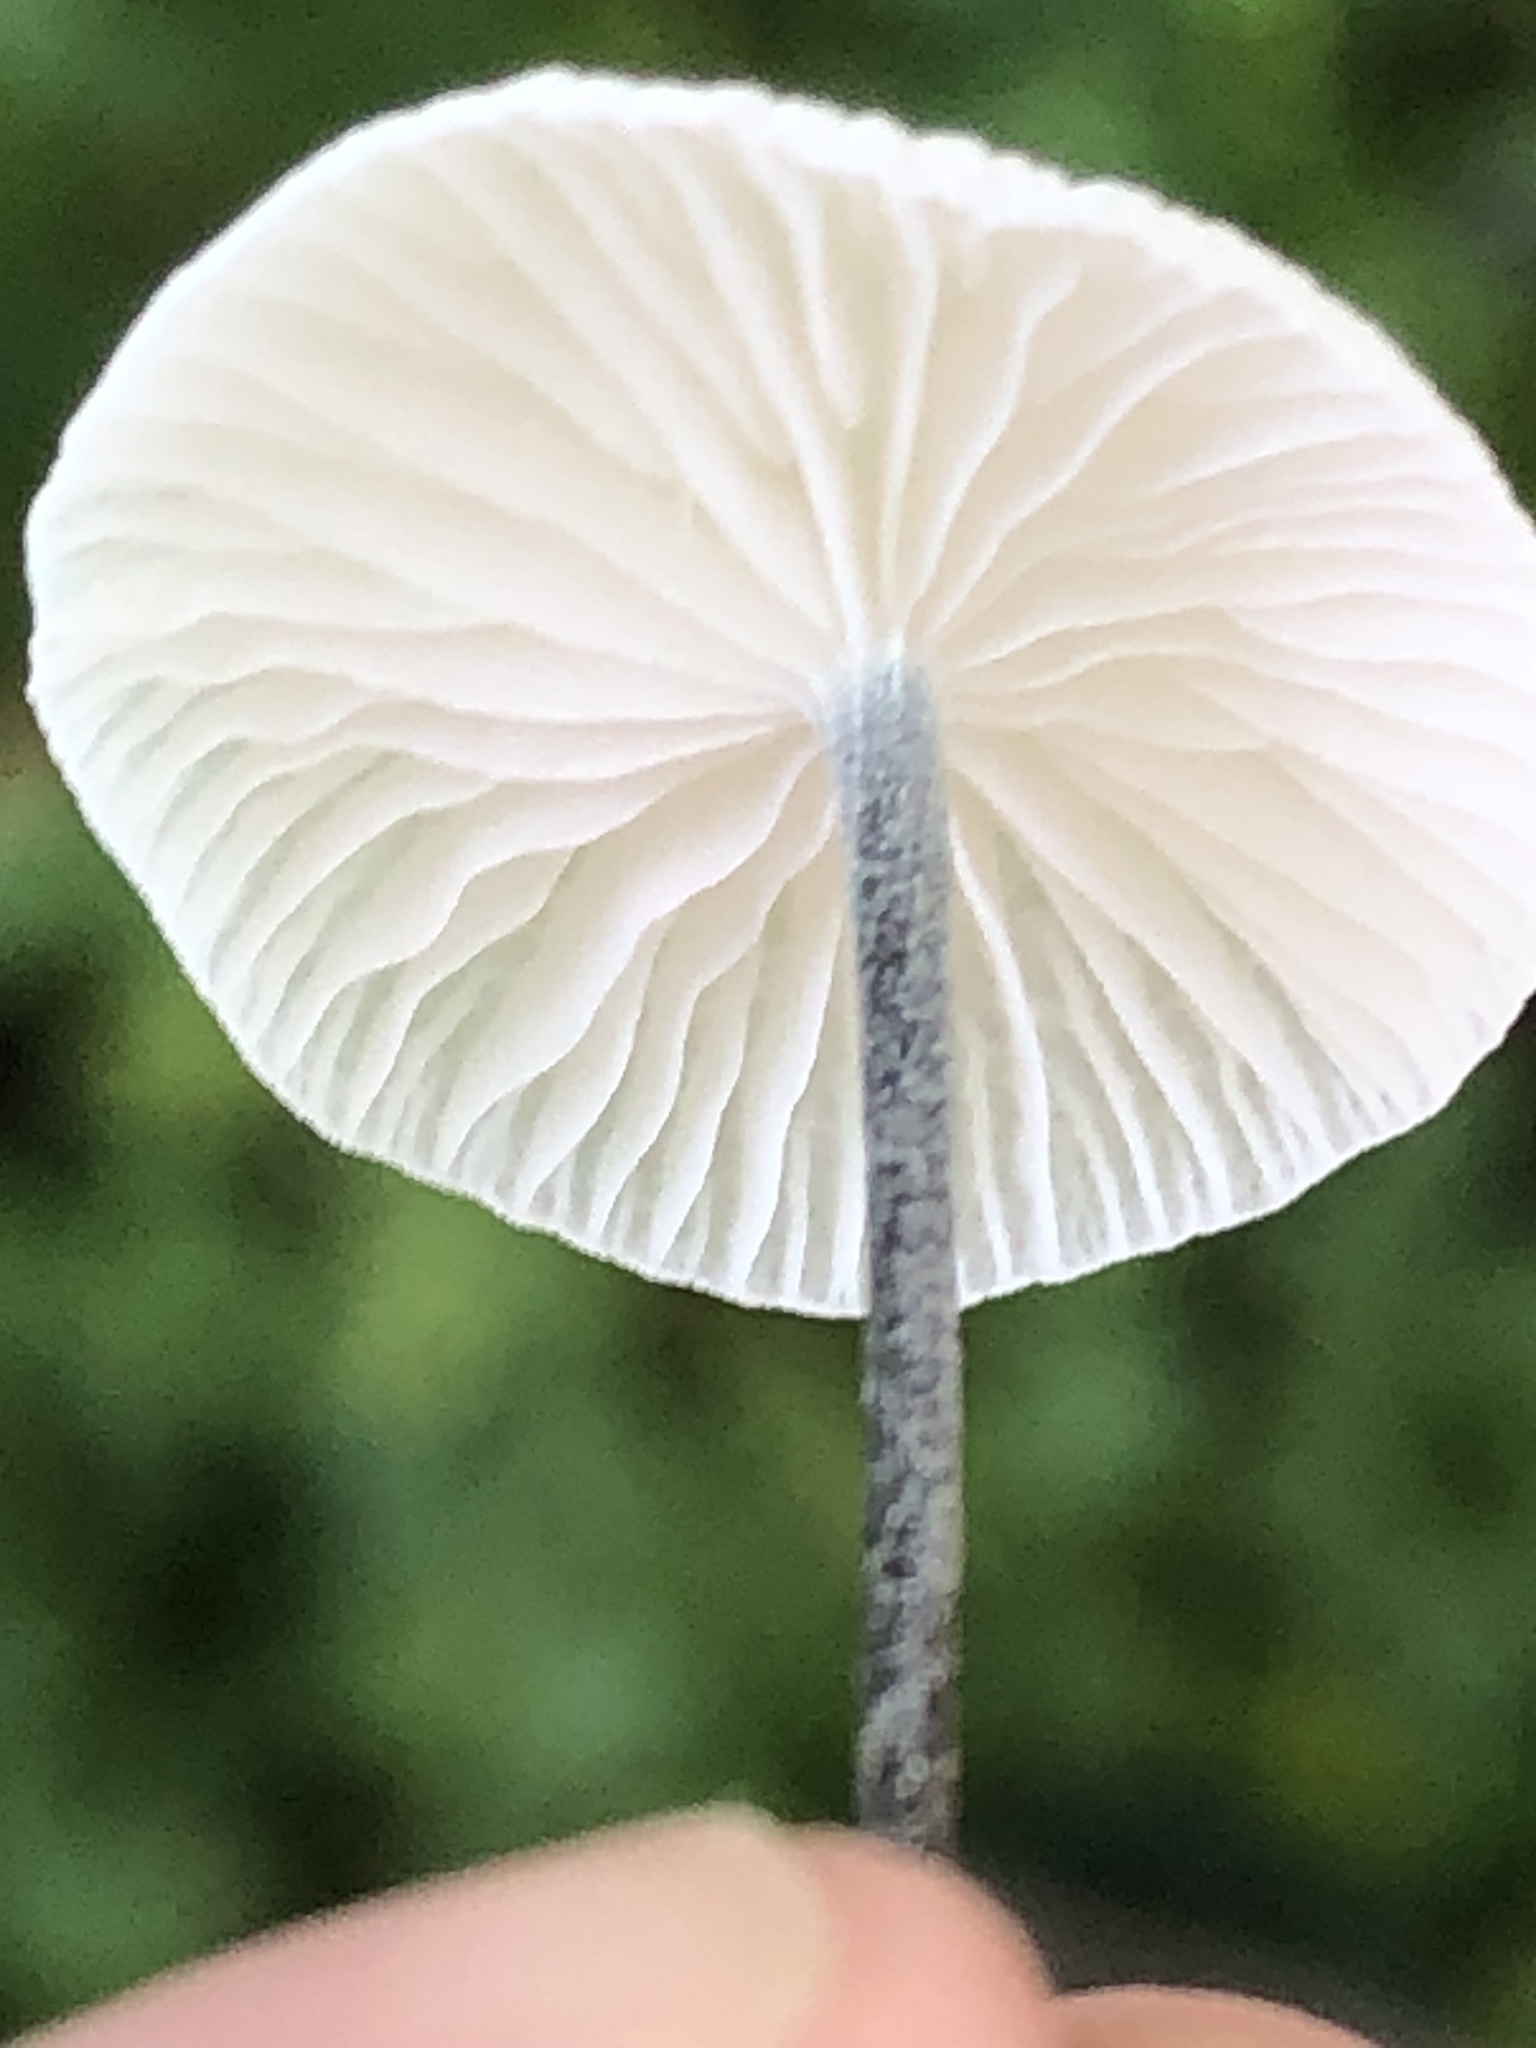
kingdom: Fungi
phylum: Basidiomycota
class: Agaricomycetes
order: Agaricales
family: Marasmiaceae
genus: Tetrapyrgos
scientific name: Tetrapyrgos nigripes
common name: Black-stalked marasmius
